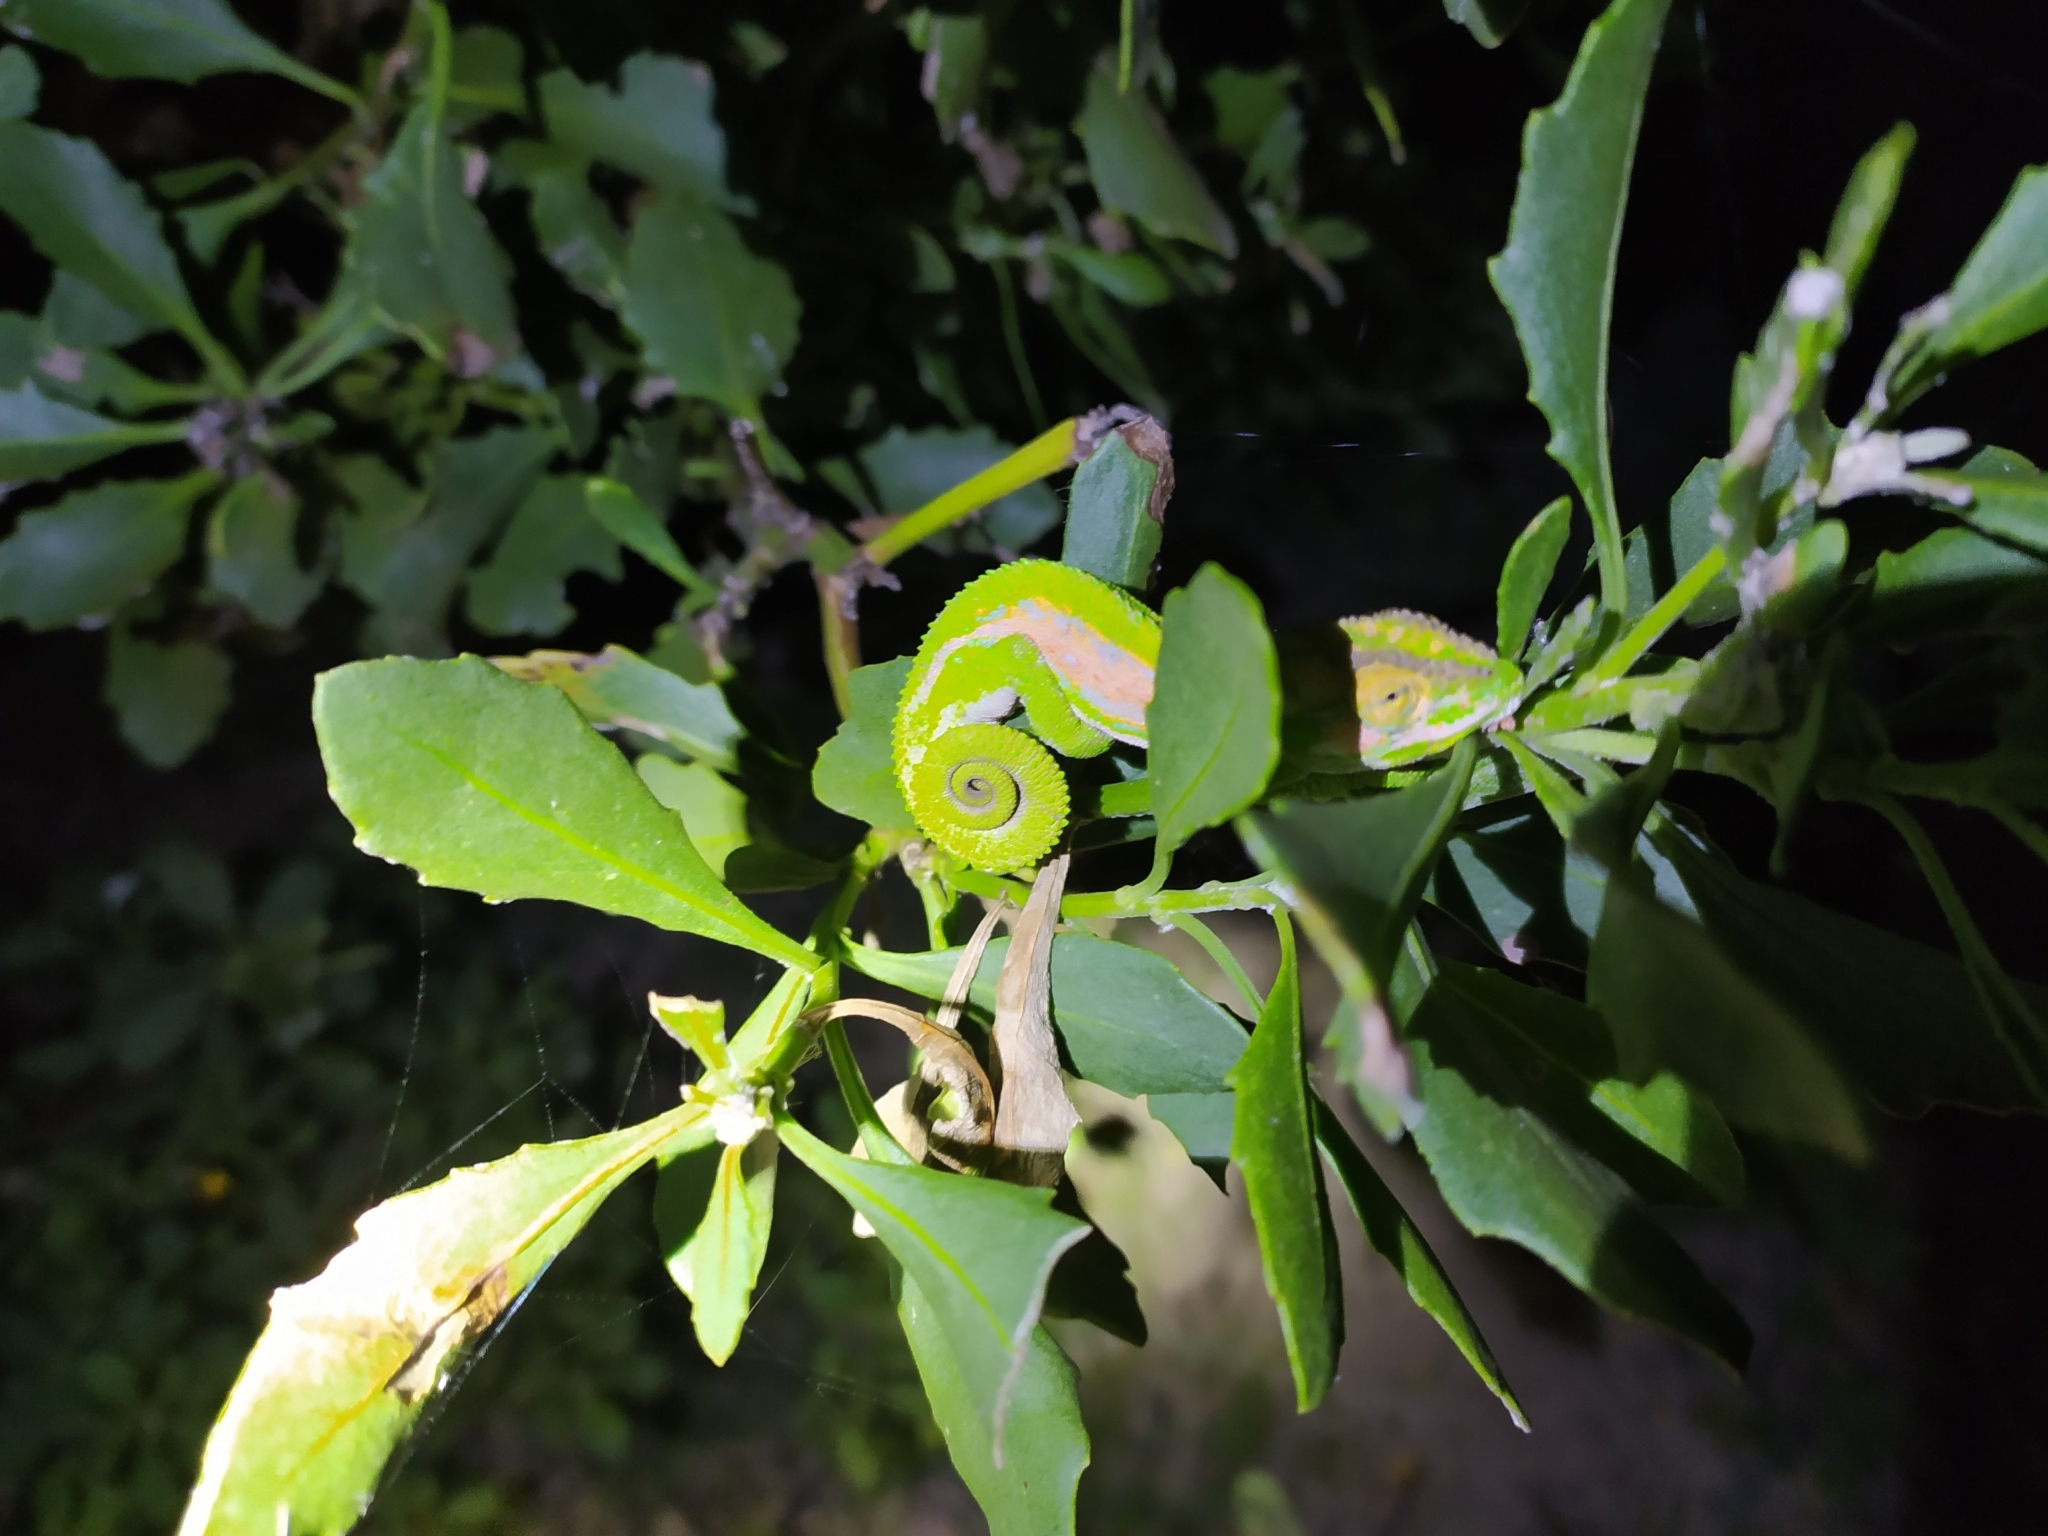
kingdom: Animalia
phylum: Chordata
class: Squamata
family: Chamaeleonidae
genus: Bradypodion
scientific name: Bradypodion pumilum
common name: Cape dwarf chameleon
